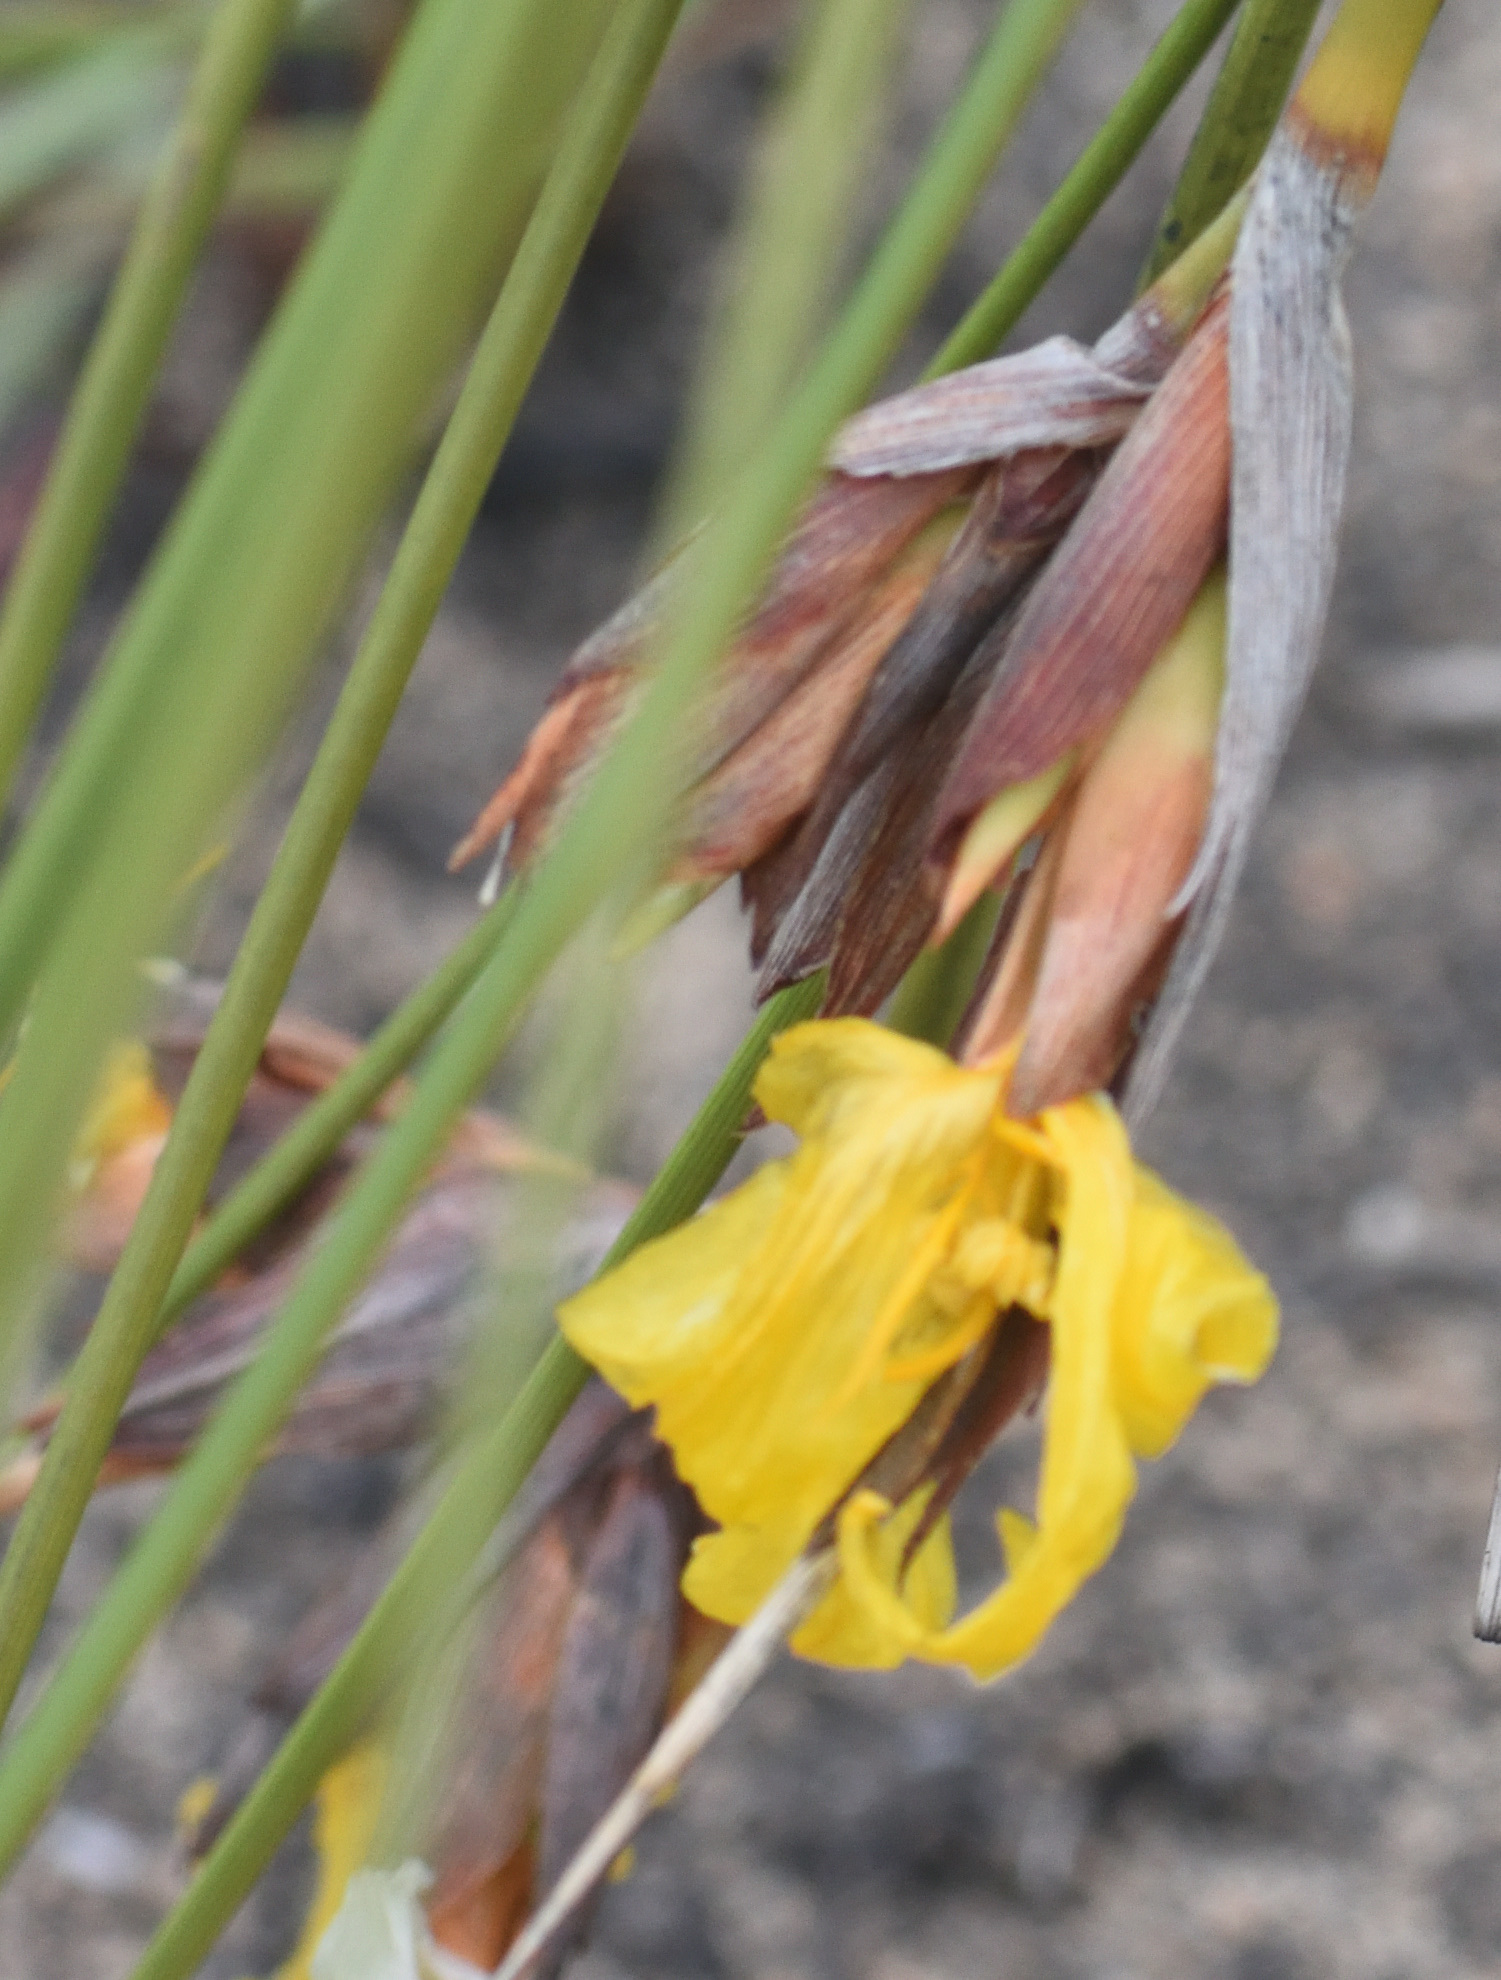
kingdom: Plantae
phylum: Tracheophyta
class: Liliopsida
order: Asparagales
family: Iridaceae
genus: Bobartia
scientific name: Bobartia orientalis
